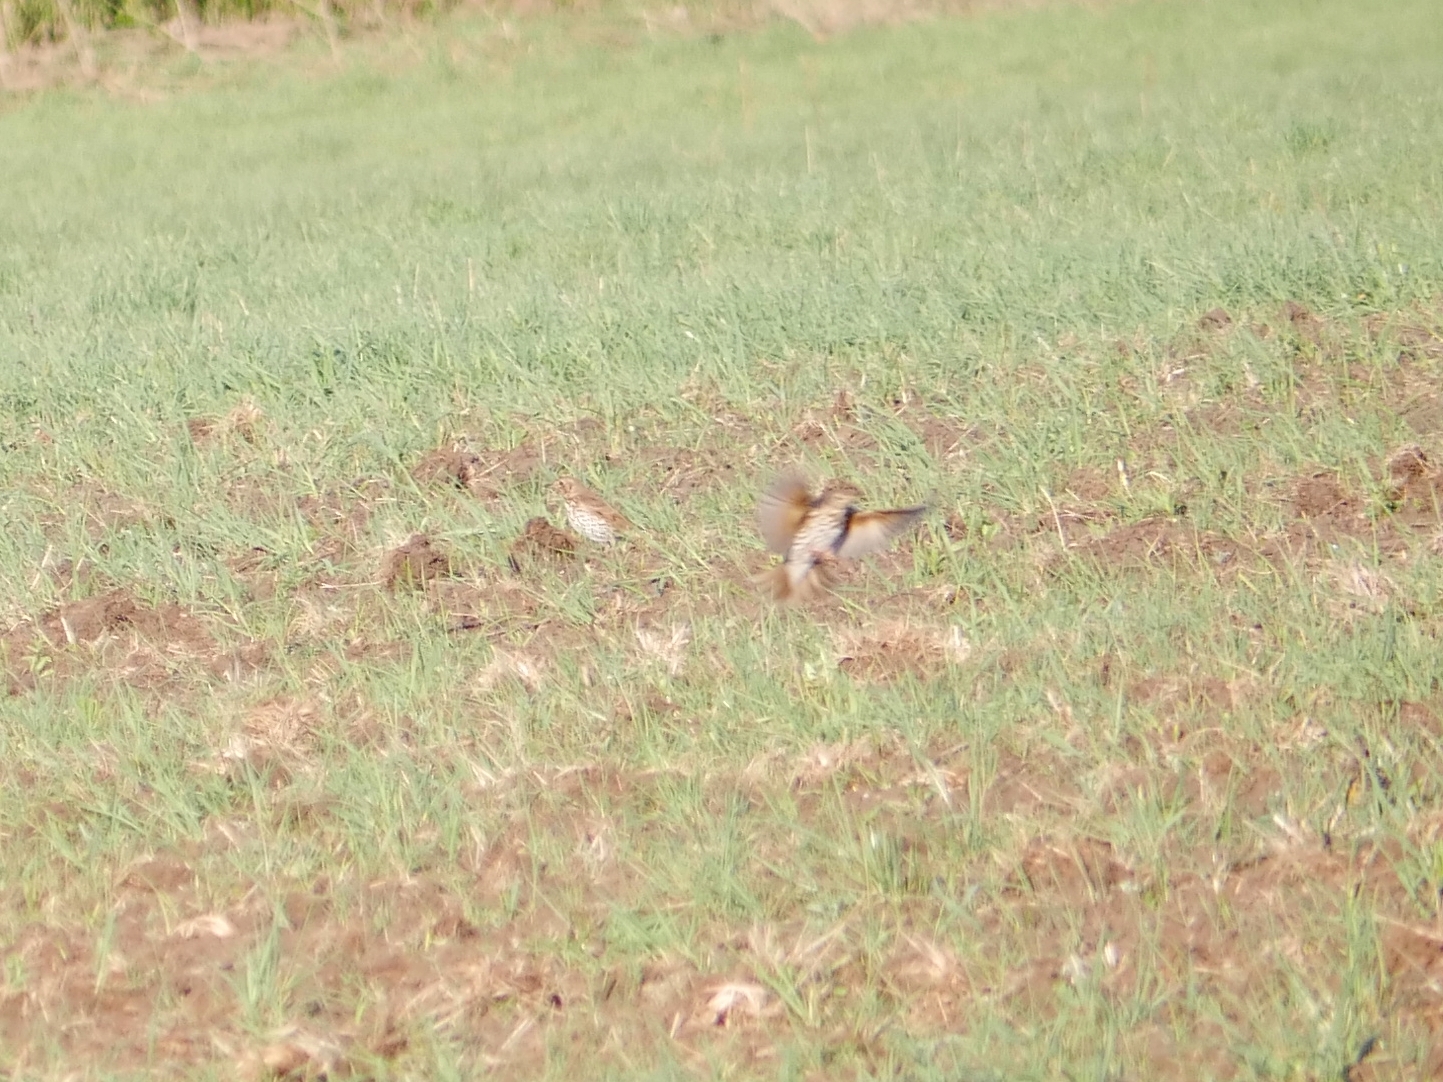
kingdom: Animalia
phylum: Chordata
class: Aves
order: Passeriformes
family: Turdidae
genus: Turdus
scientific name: Turdus philomelos
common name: Song thrush
